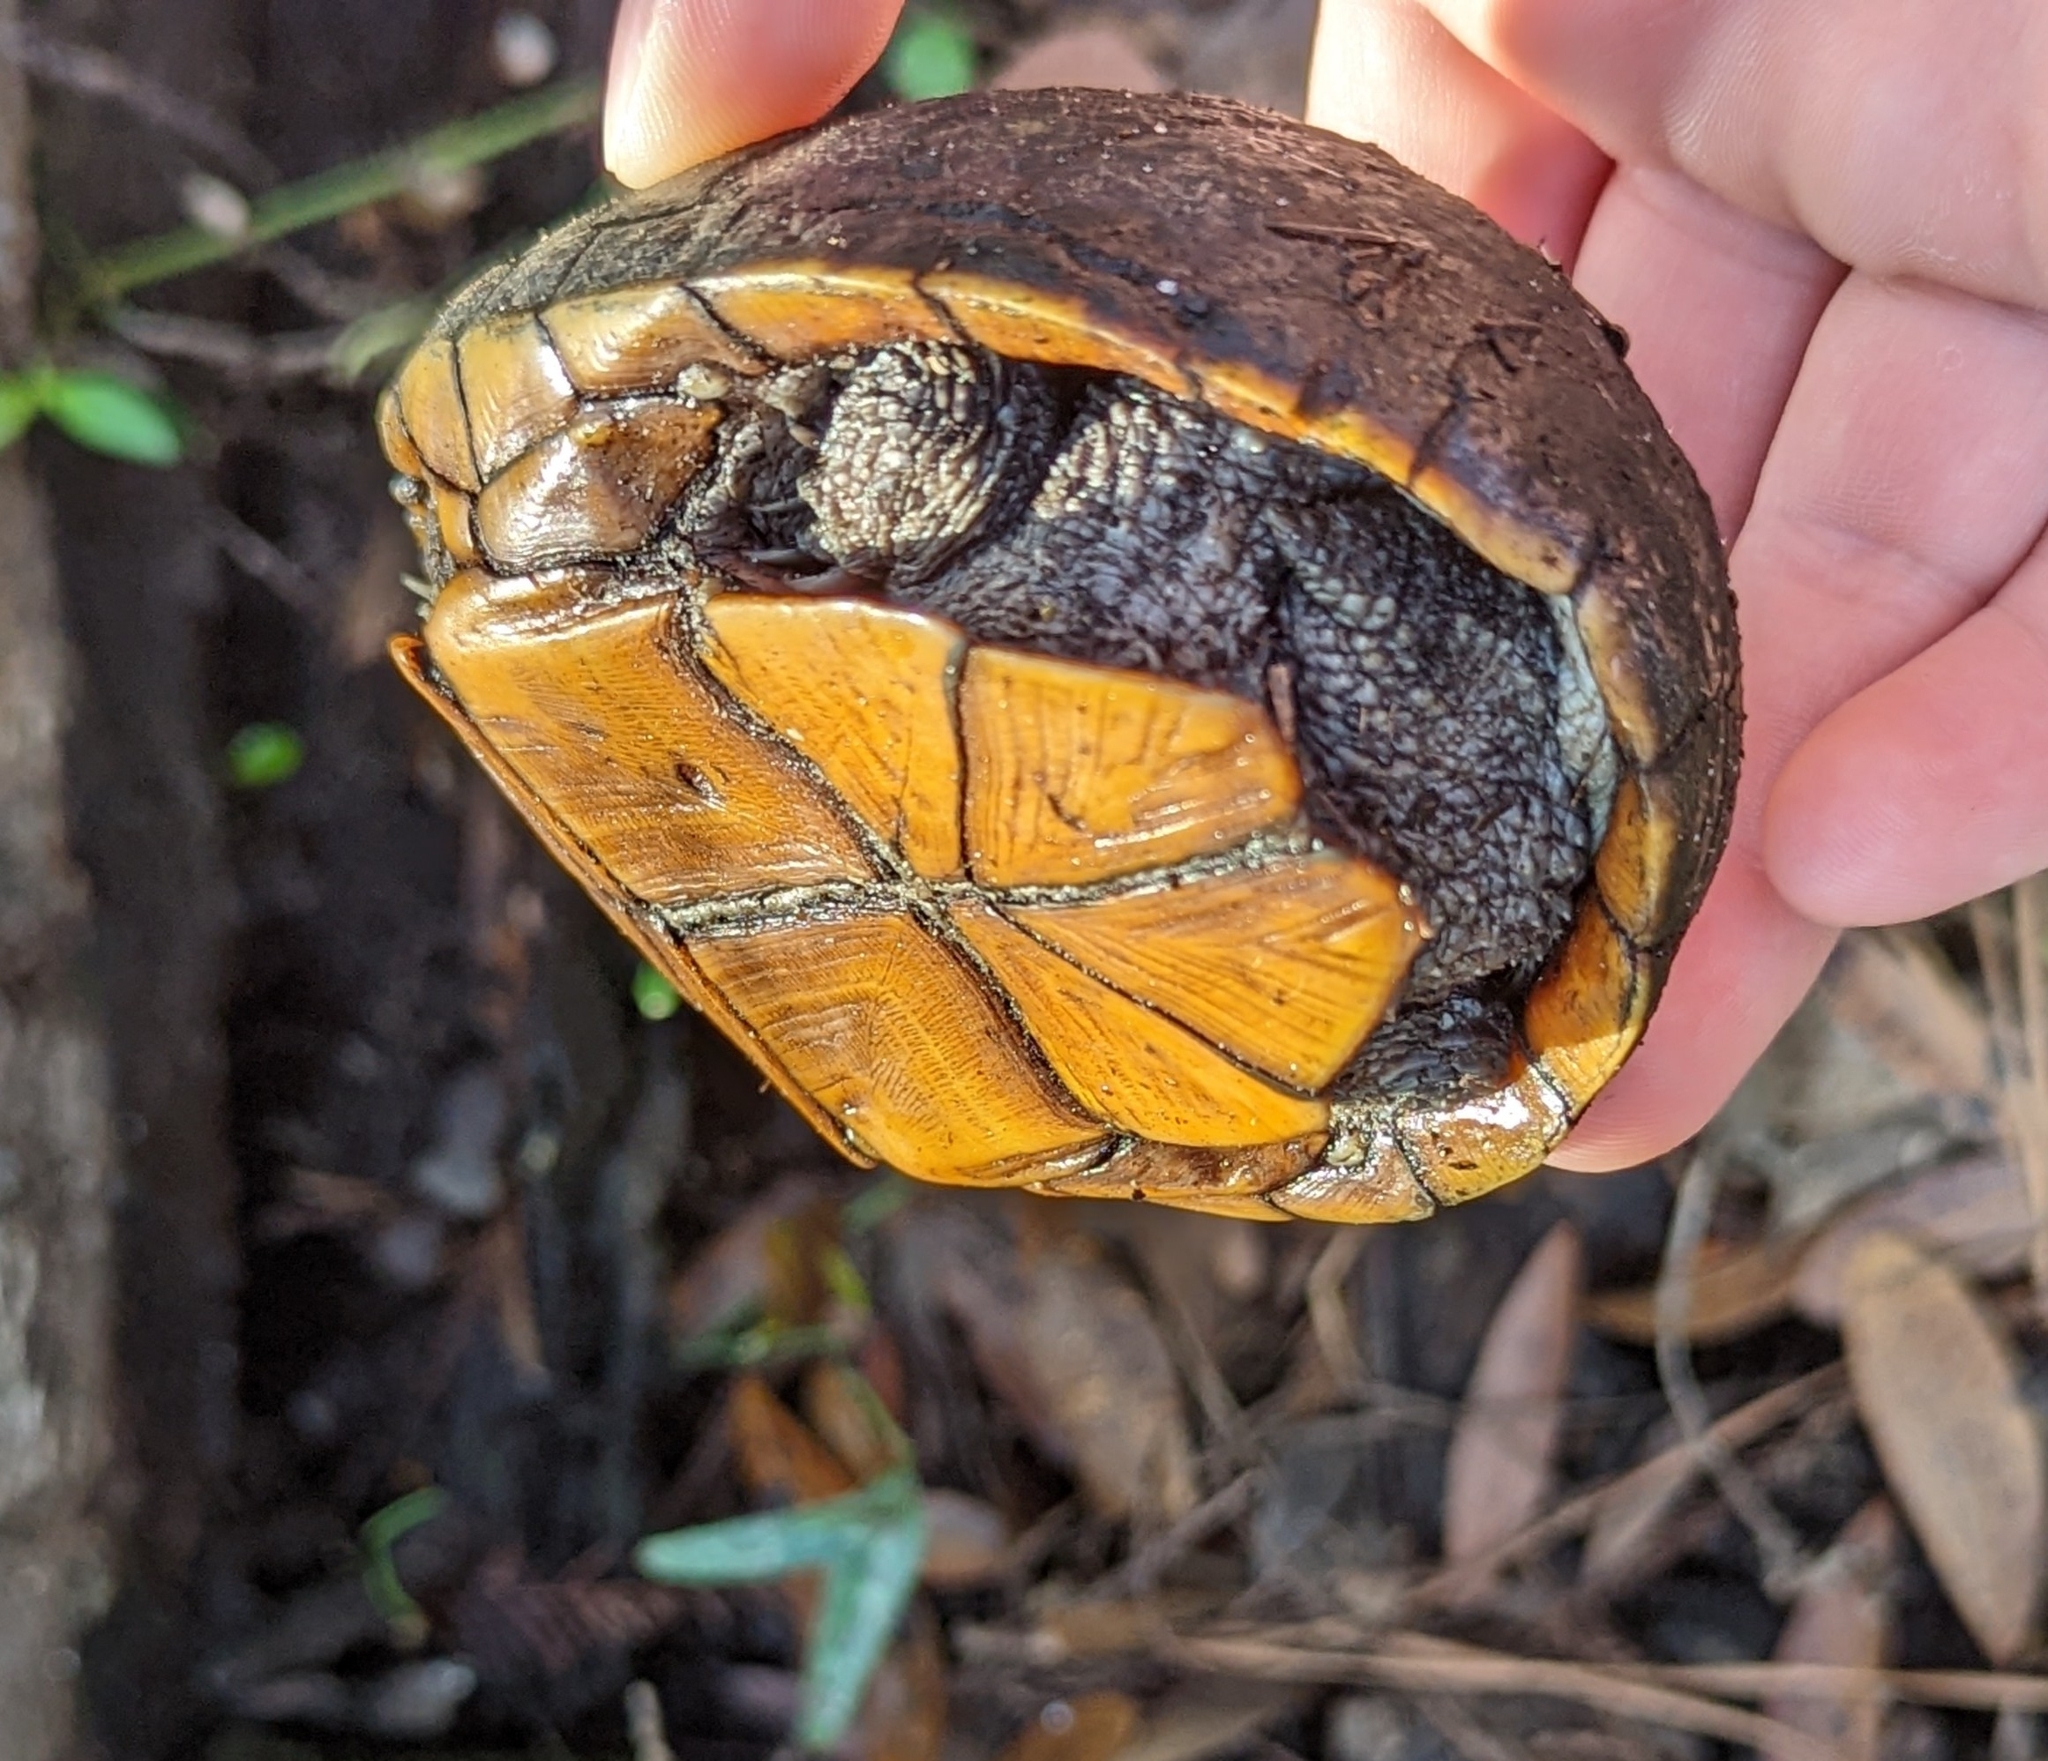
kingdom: Animalia
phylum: Chordata
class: Testudines
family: Kinosternidae
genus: Kinosternon
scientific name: Kinosternon baurii
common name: Striped mud turtle
